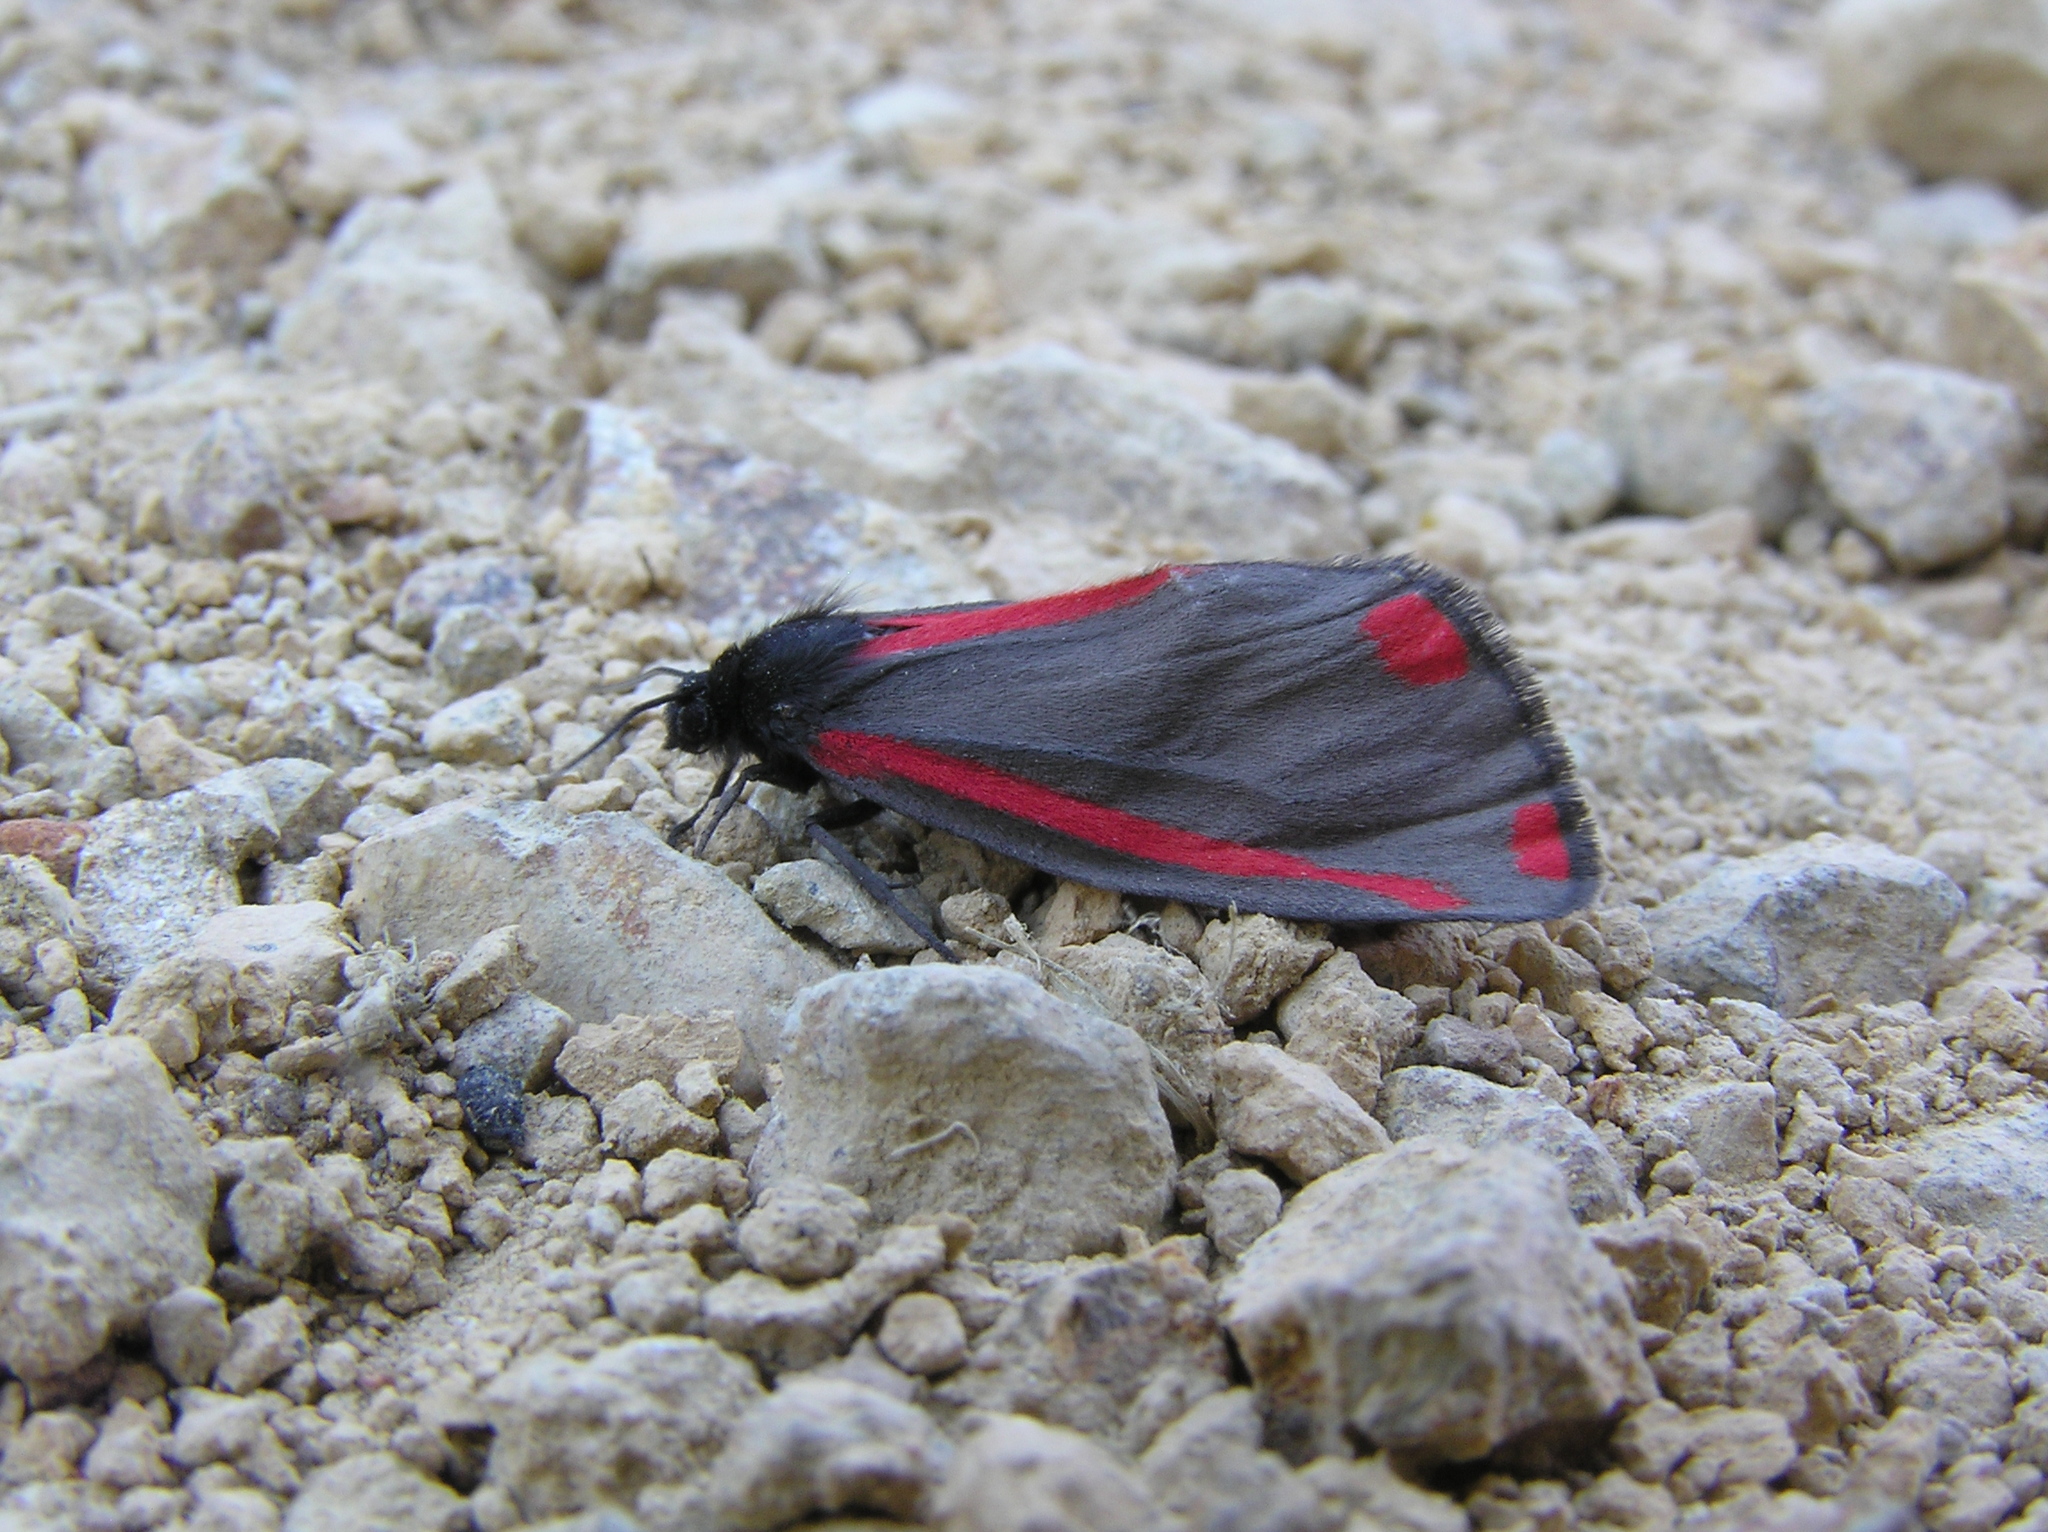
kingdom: Animalia
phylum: Arthropoda
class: Insecta
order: Lepidoptera
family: Erebidae
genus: Tyria
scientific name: Tyria jacobaeae
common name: Cinnabar
